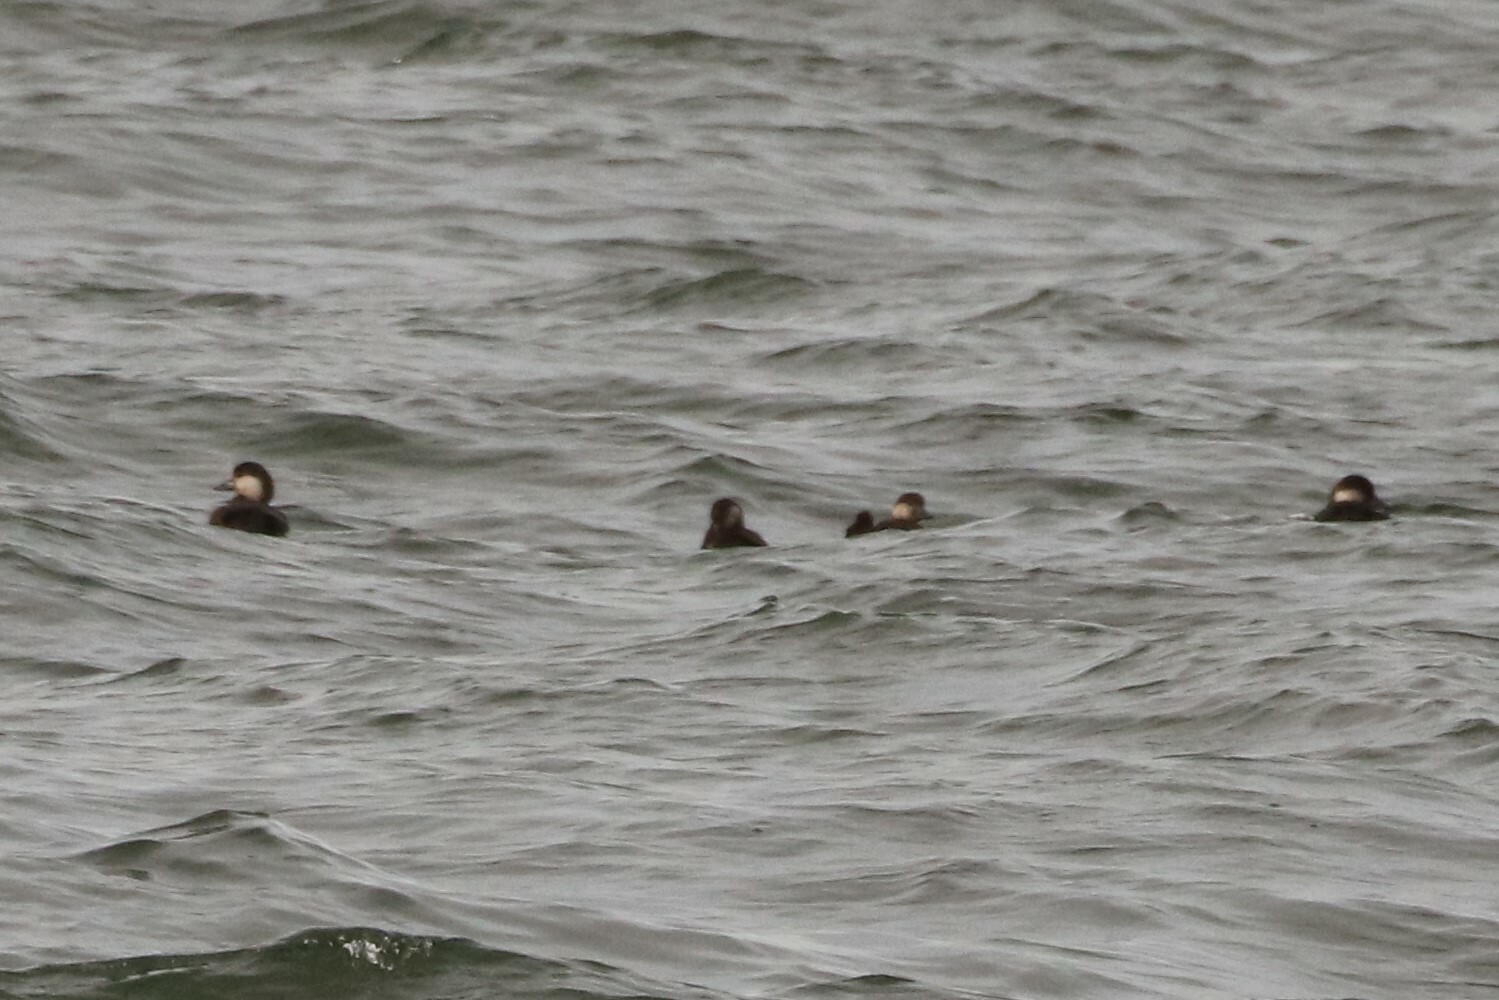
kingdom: Animalia
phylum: Chordata
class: Aves
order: Anseriformes
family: Anatidae
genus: Melanitta
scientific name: Melanitta americana
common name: Black scoter
